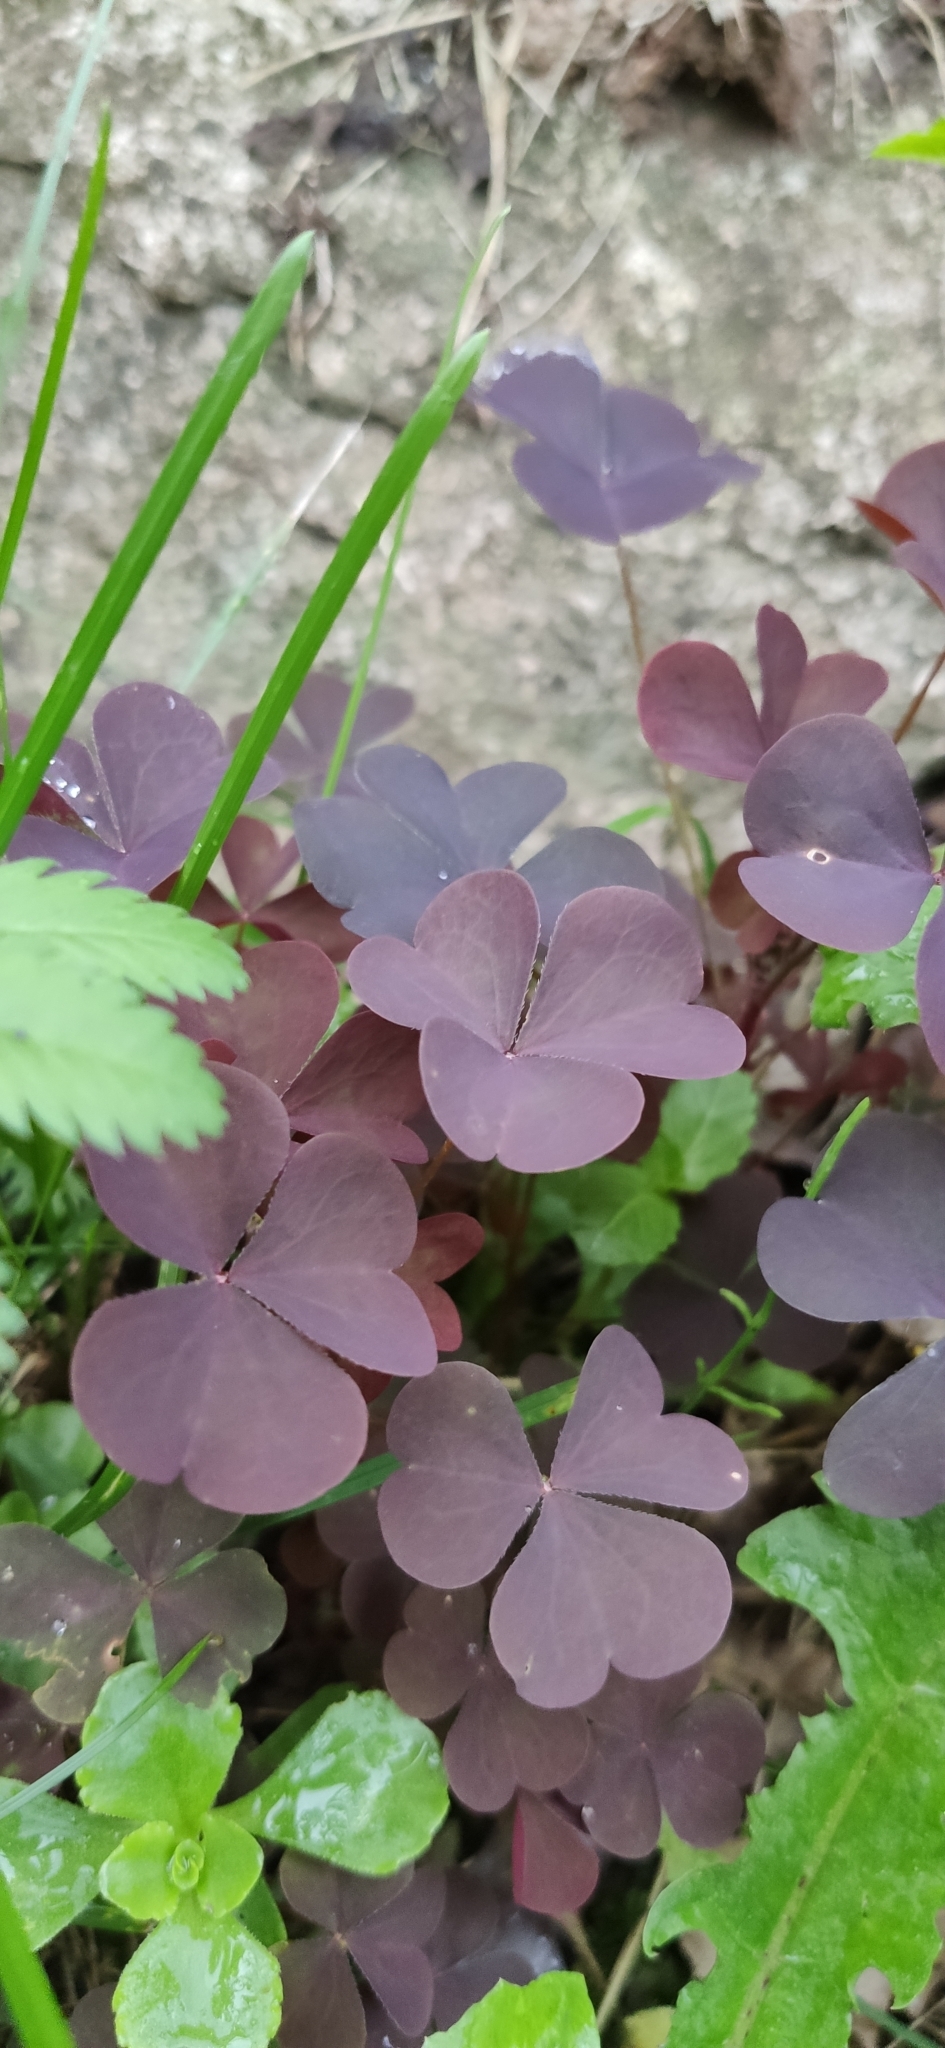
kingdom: Plantae
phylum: Tracheophyta
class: Magnoliopsida
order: Oxalidales
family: Oxalidaceae
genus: Oxalis
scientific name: Oxalis stricta
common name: Upright yellow-sorrel
